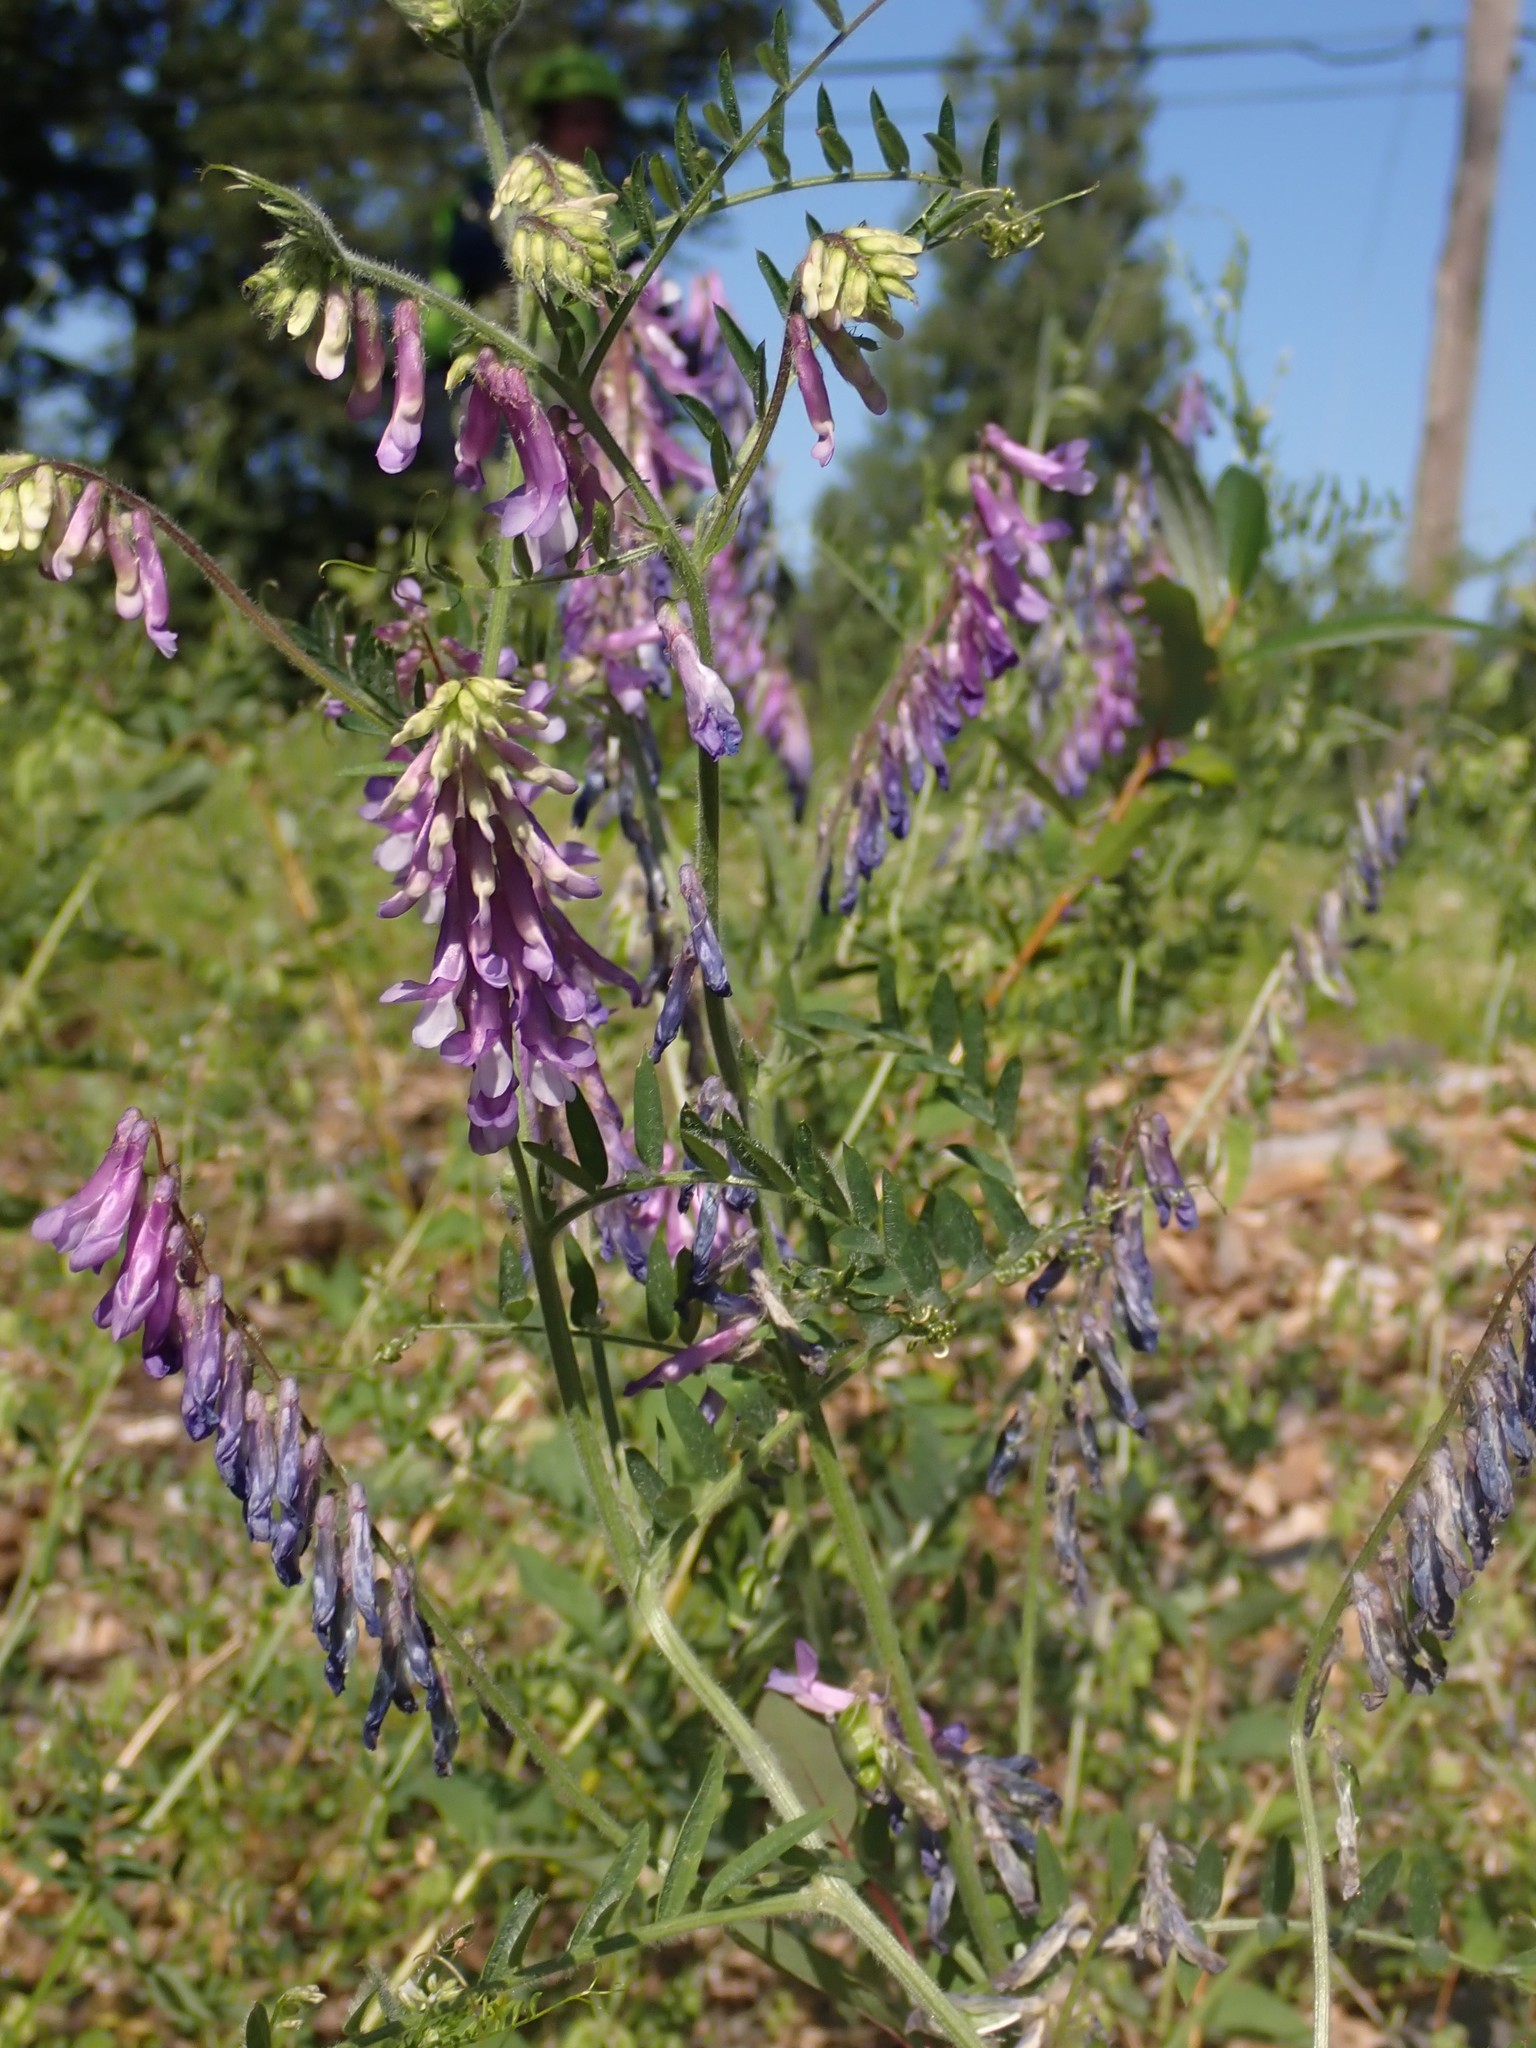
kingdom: Plantae
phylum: Tracheophyta
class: Magnoliopsida
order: Fabales
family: Fabaceae
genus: Vicia
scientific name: Vicia villosa
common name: Fodder vetch
